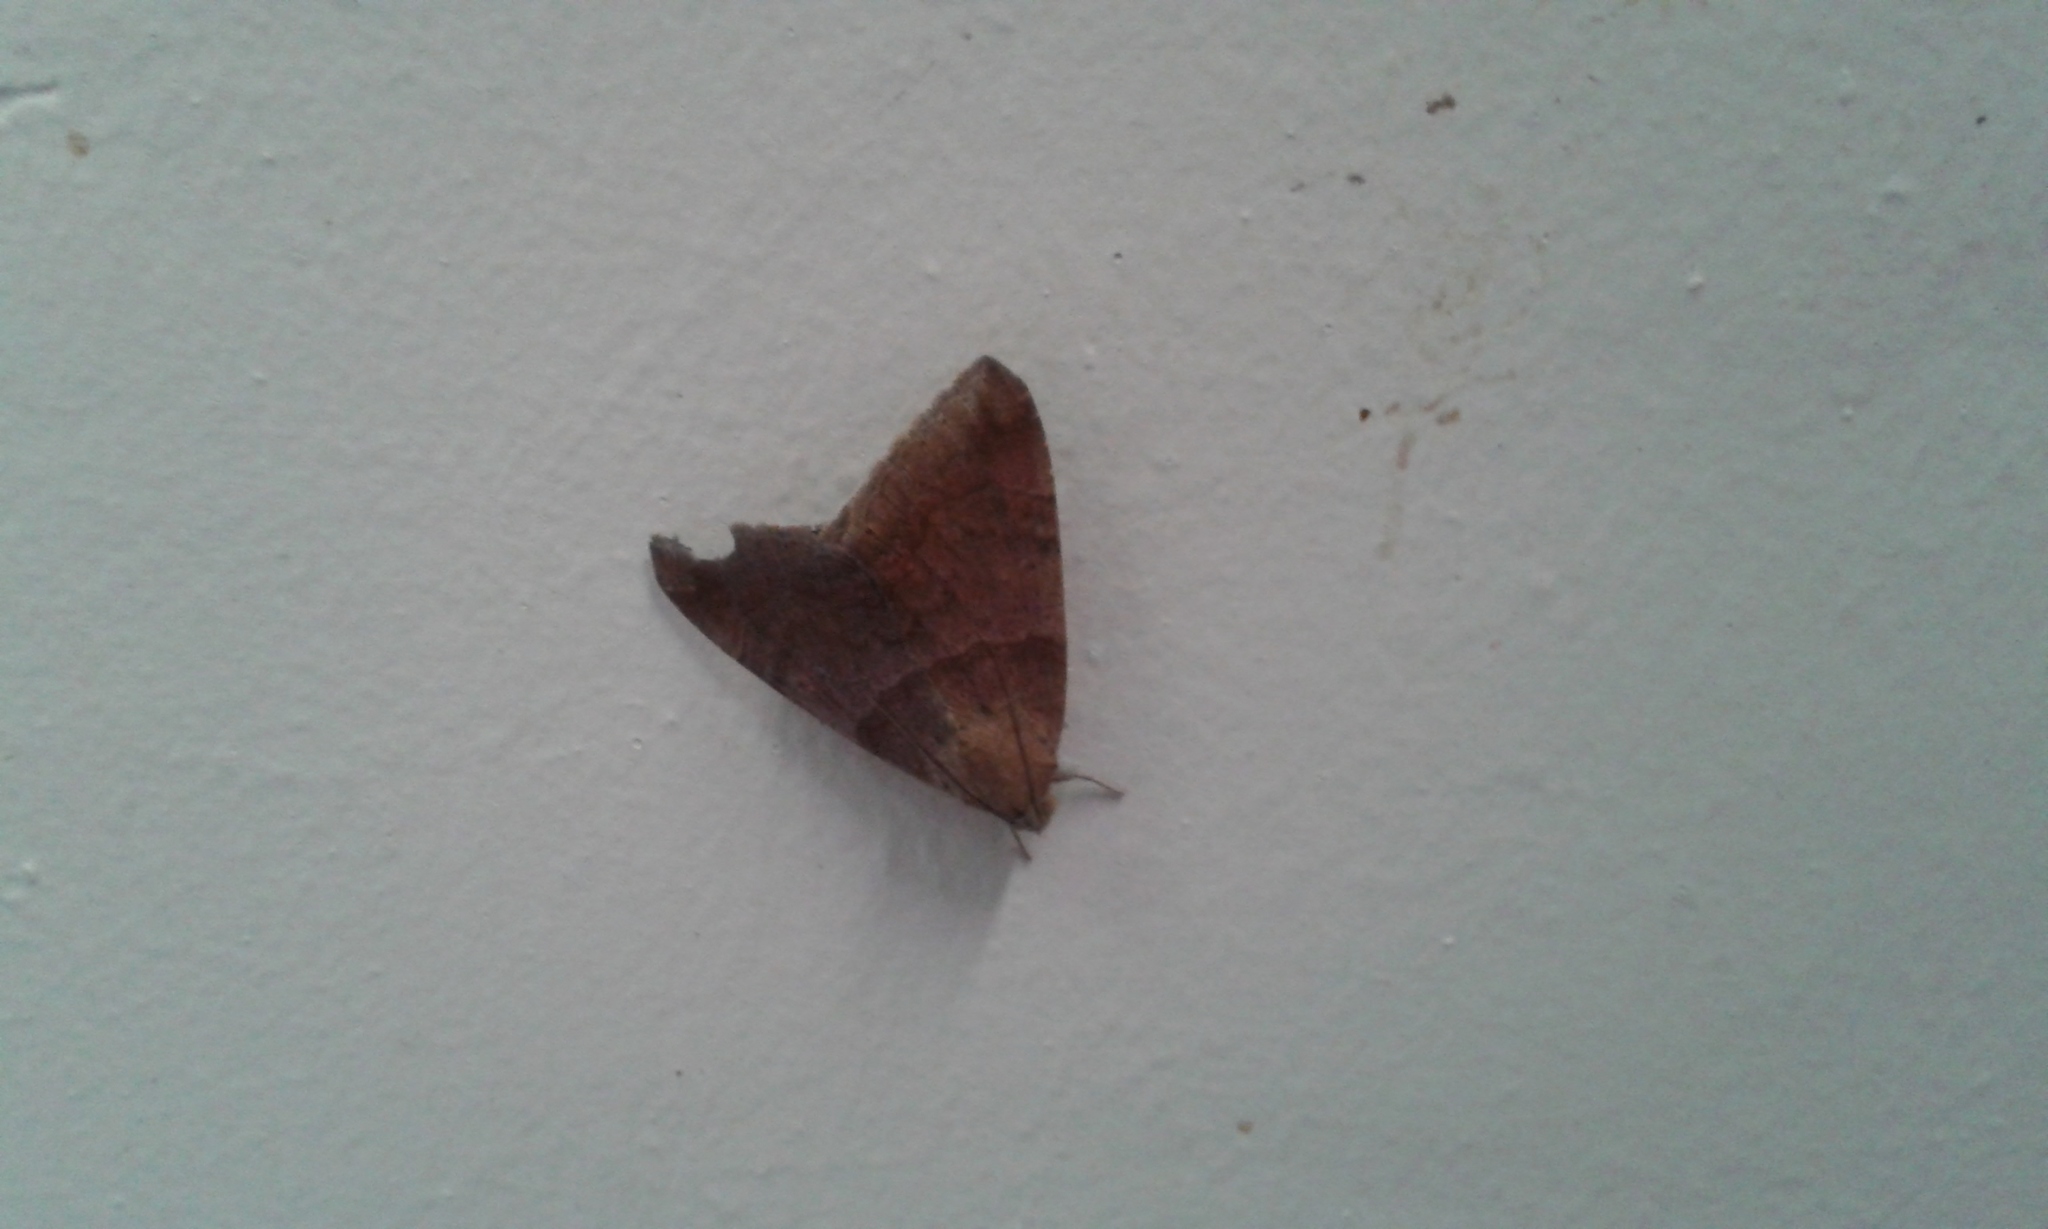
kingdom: Animalia
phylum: Arthropoda
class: Insecta
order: Lepidoptera
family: Erebidae
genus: Achaea
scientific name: Achaea janata
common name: Croton caterpillar
